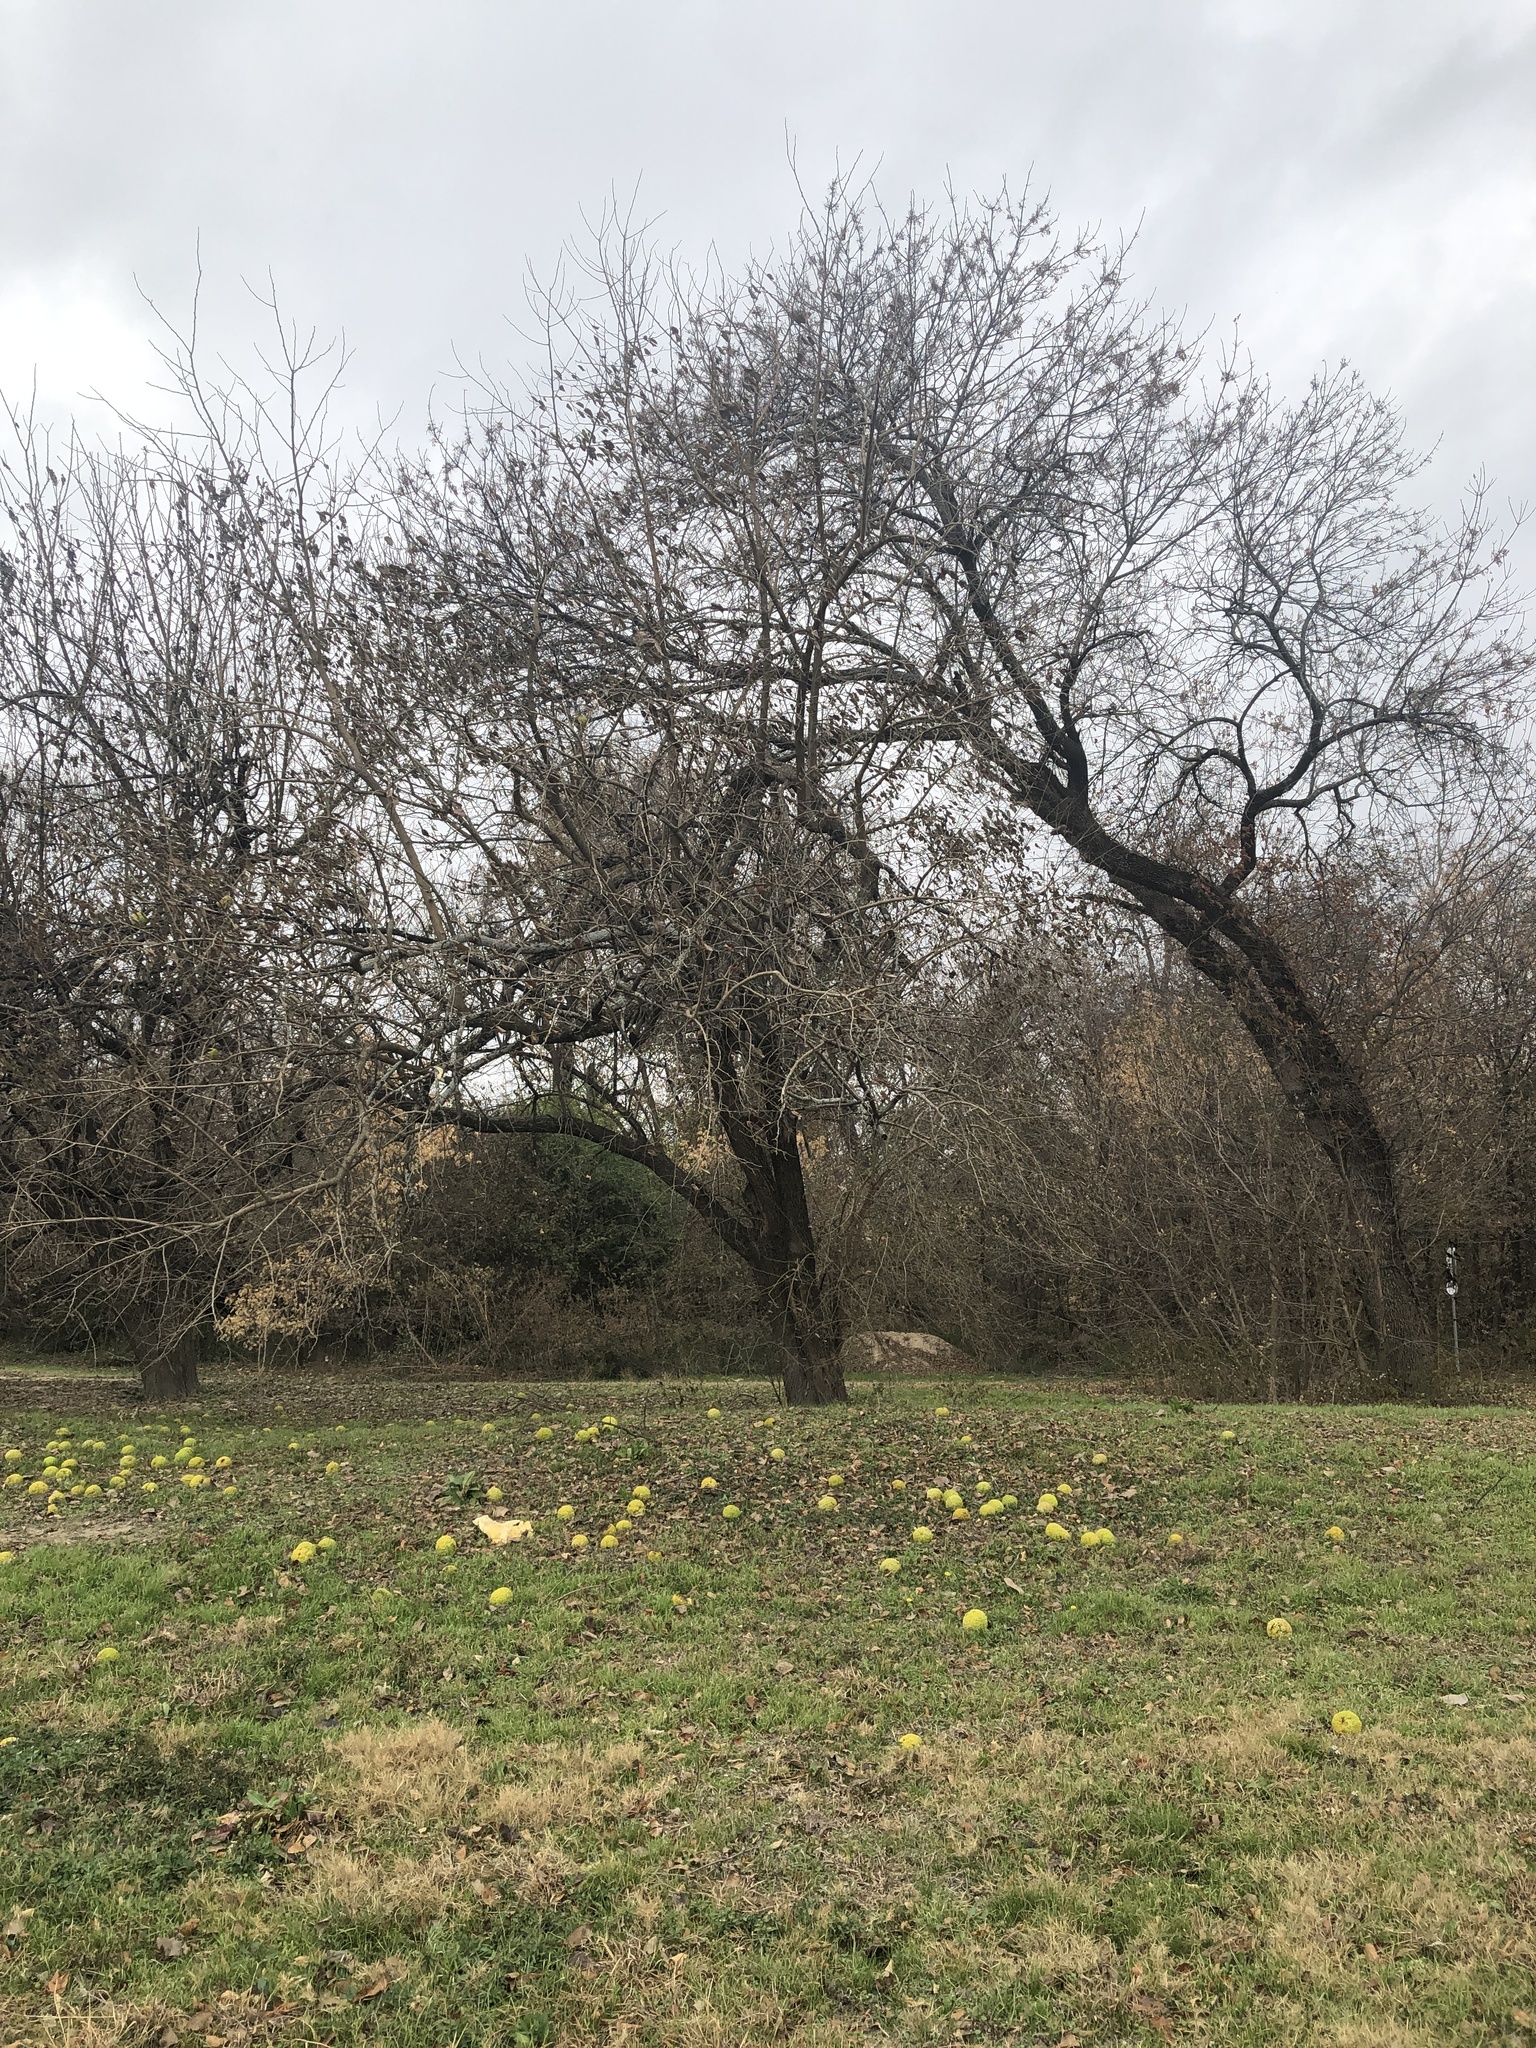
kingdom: Plantae
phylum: Tracheophyta
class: Magnoliopsida
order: Rosales
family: Moraceae
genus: Maclura
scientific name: Maclura pomifera
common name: Osage-orange
